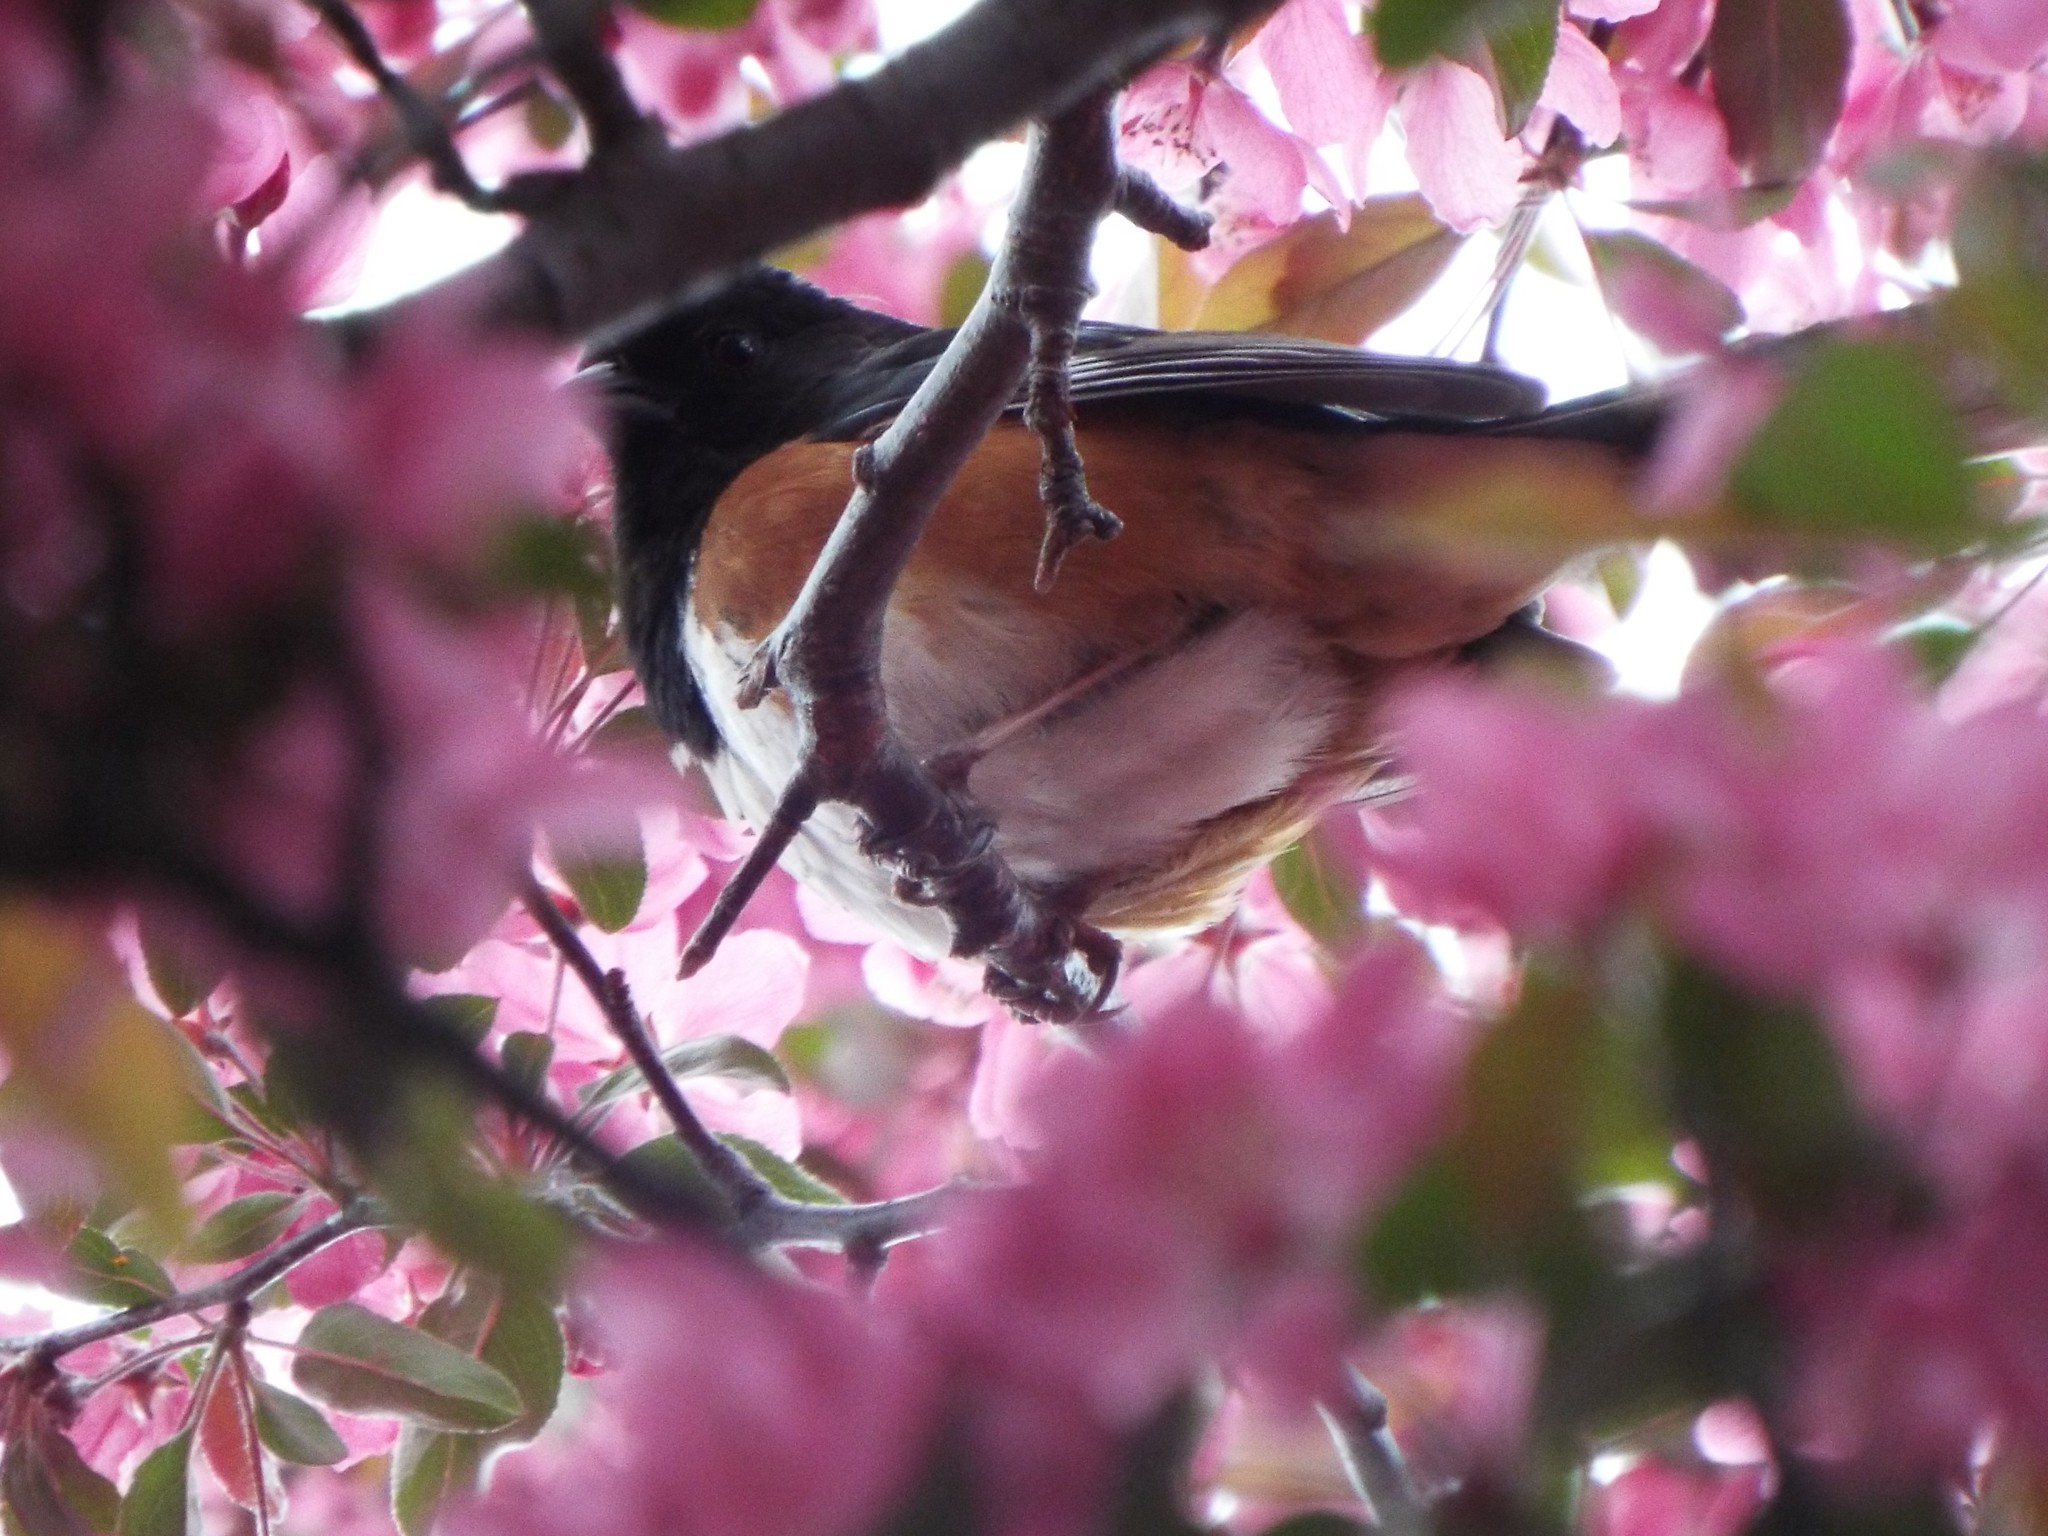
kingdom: Animalia
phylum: Chordata
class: Aves
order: Passeriformes
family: Passerellidae
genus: Pipilo
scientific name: Pipilo erythrophthalmus
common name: Eastern towhee
